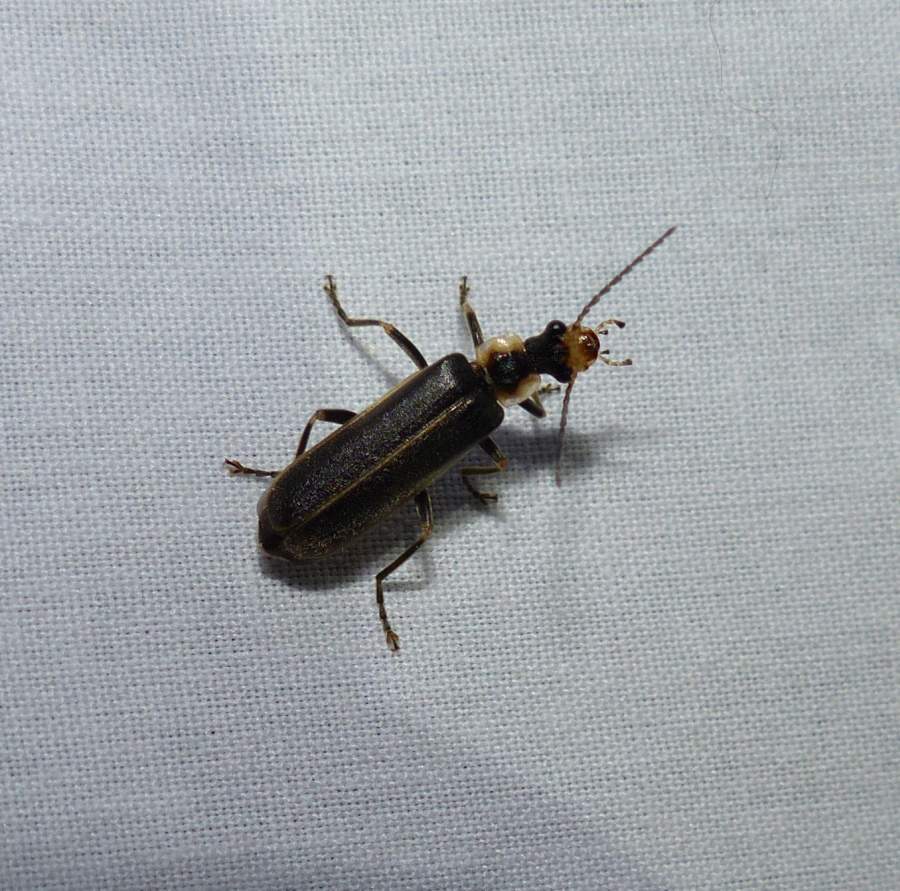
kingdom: Animalia
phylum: Arthropoda
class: Insecta
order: Coleoptera
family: Cantharidae
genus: Podabrus
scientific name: Podabrus punctulatus
